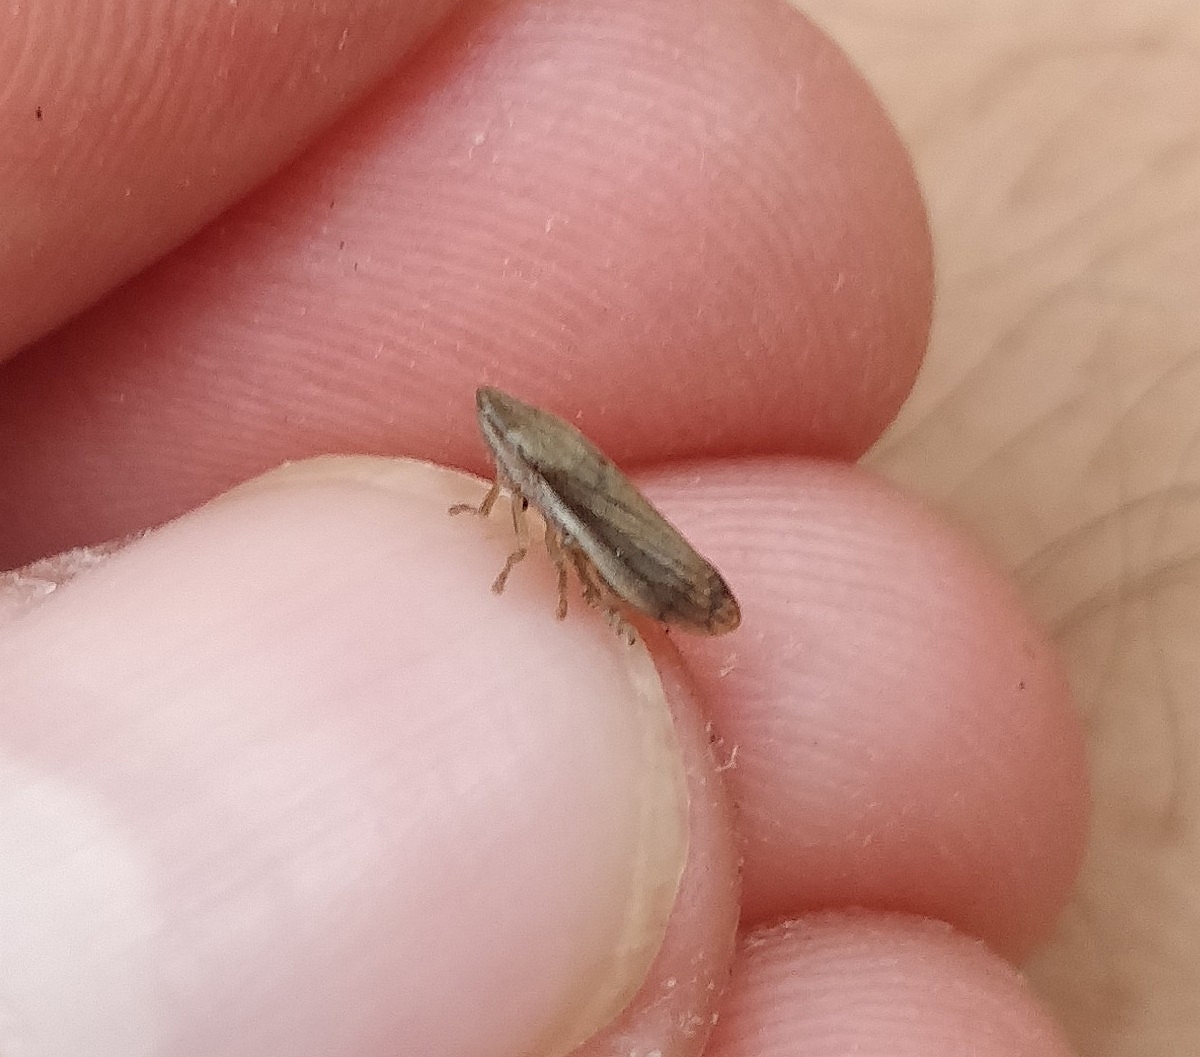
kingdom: Animalia
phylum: Arthropoda
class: Insecta
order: Hemiptera
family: Aphrophoridae
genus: Neophilaenus
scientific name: Neophilaenus angustipennis
